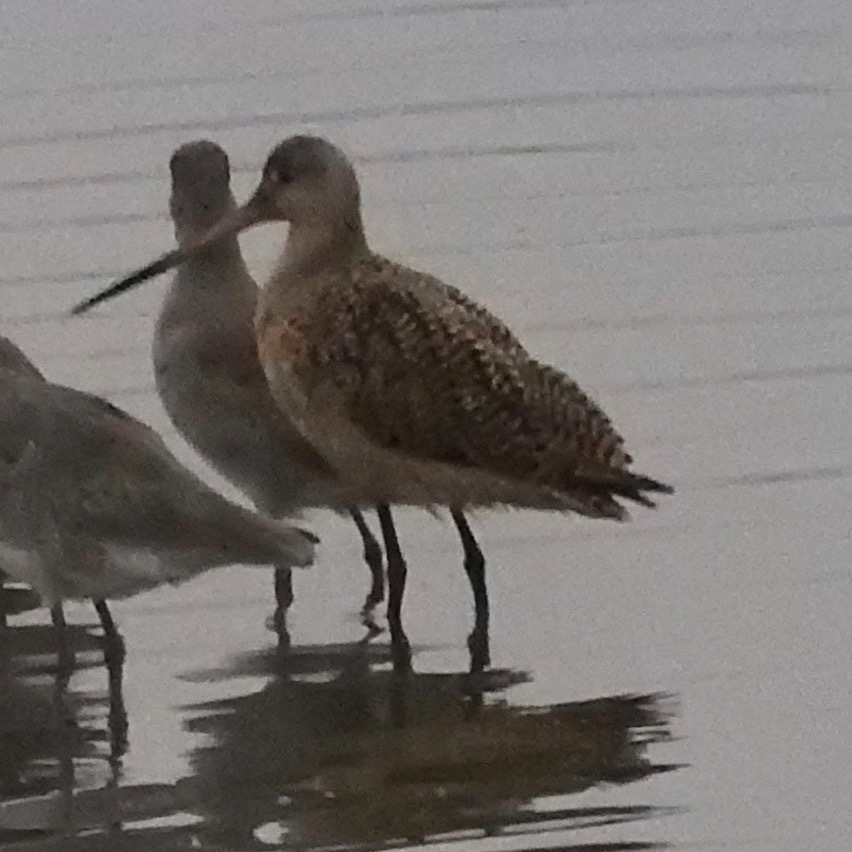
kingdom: Animalia
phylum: Chordata
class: Aves
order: Charadriiformes
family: Scolopacidae
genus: Limosa
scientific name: Limosa fedoa
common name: Marbled godwit
